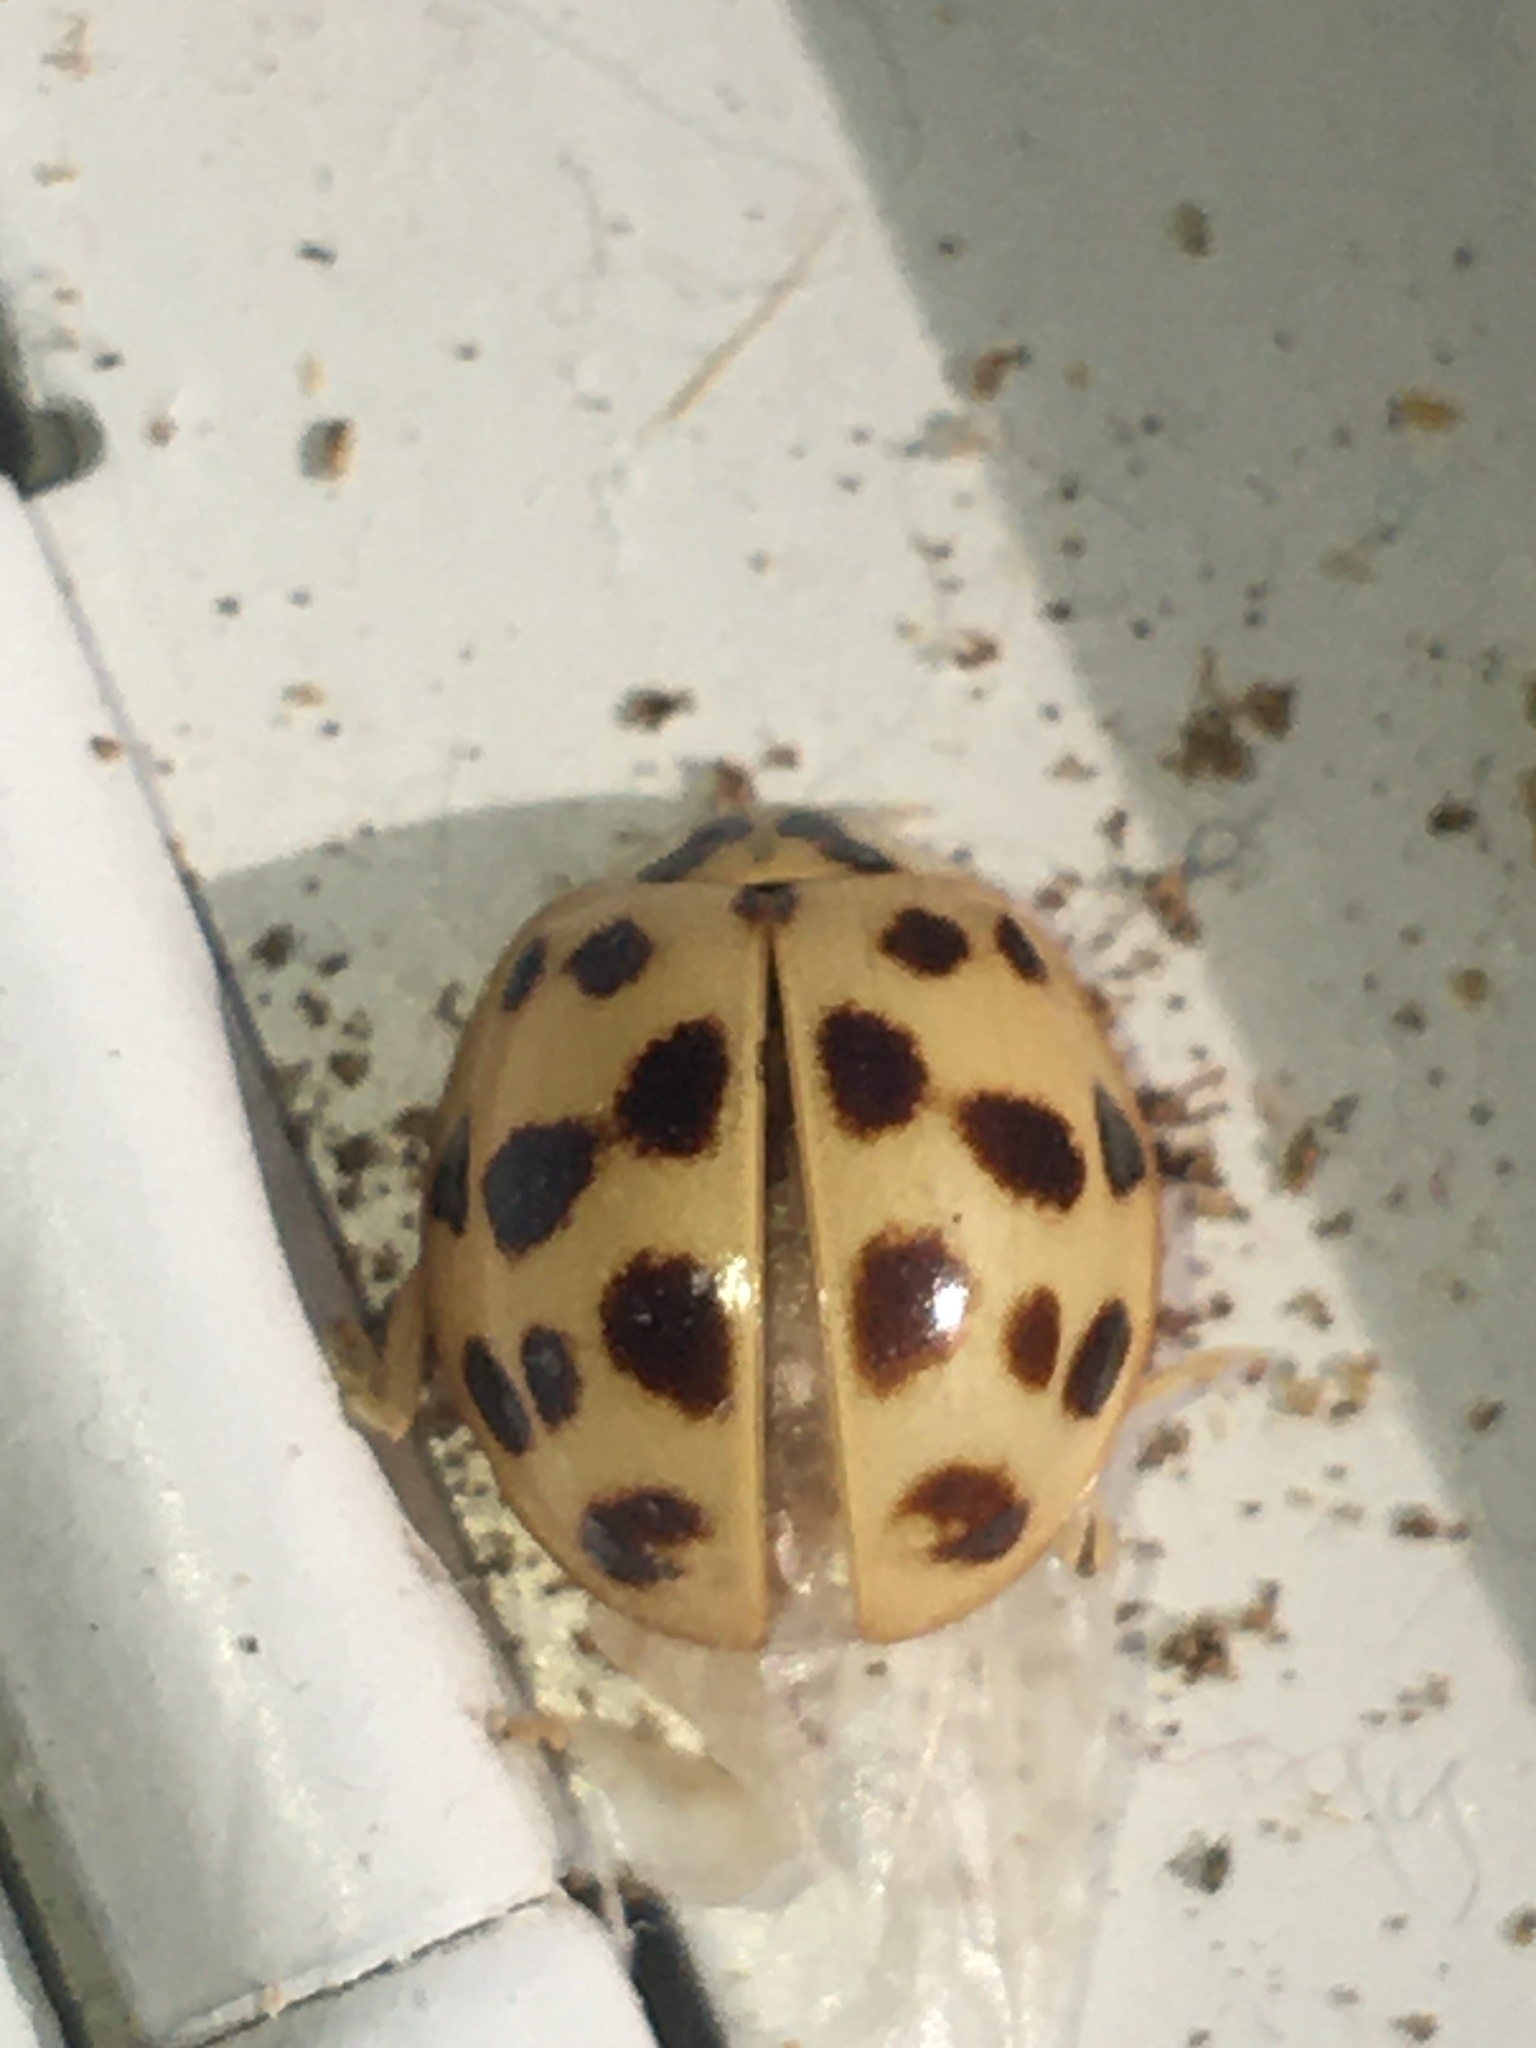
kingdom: Animalia
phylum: Arthropoda
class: Insecta
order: Coleoptera
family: Coccinellidae
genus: Harmonia
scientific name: Harmonia axyridis
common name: Harlequin ladybird
